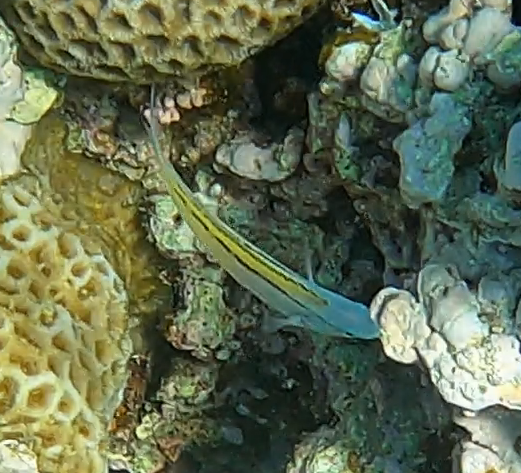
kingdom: Animalia
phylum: Chordata
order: Perciformes
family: Blenniidae
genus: Meiacanthus
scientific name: Meiacanthus nigrolineatus
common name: Blackline fangblenny
